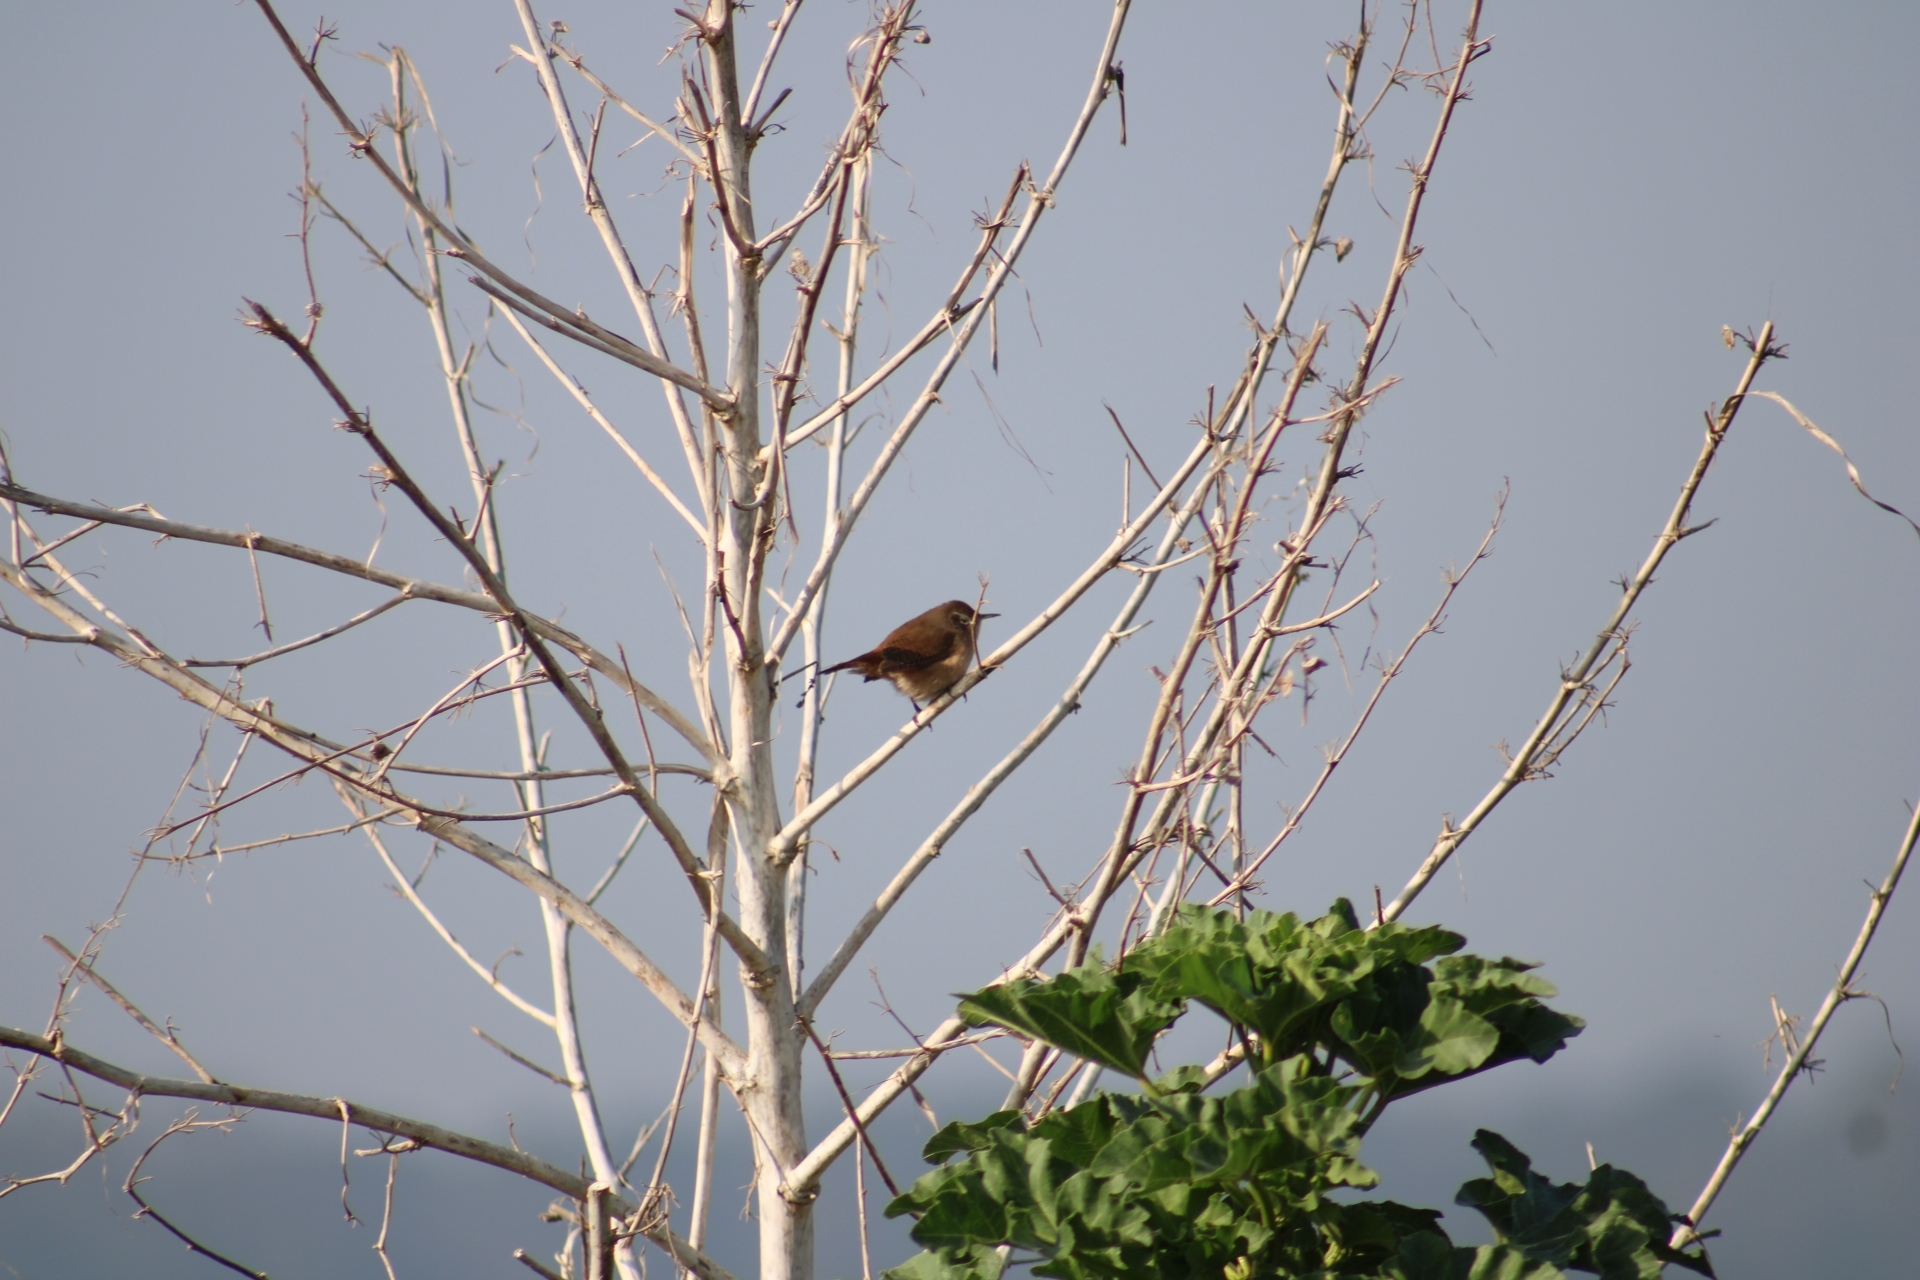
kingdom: Animalia
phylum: Chordata
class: Aves
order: Passeriformes
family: Troglodytidae
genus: Troglodytes
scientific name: Troglodytes aedon
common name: House wren
